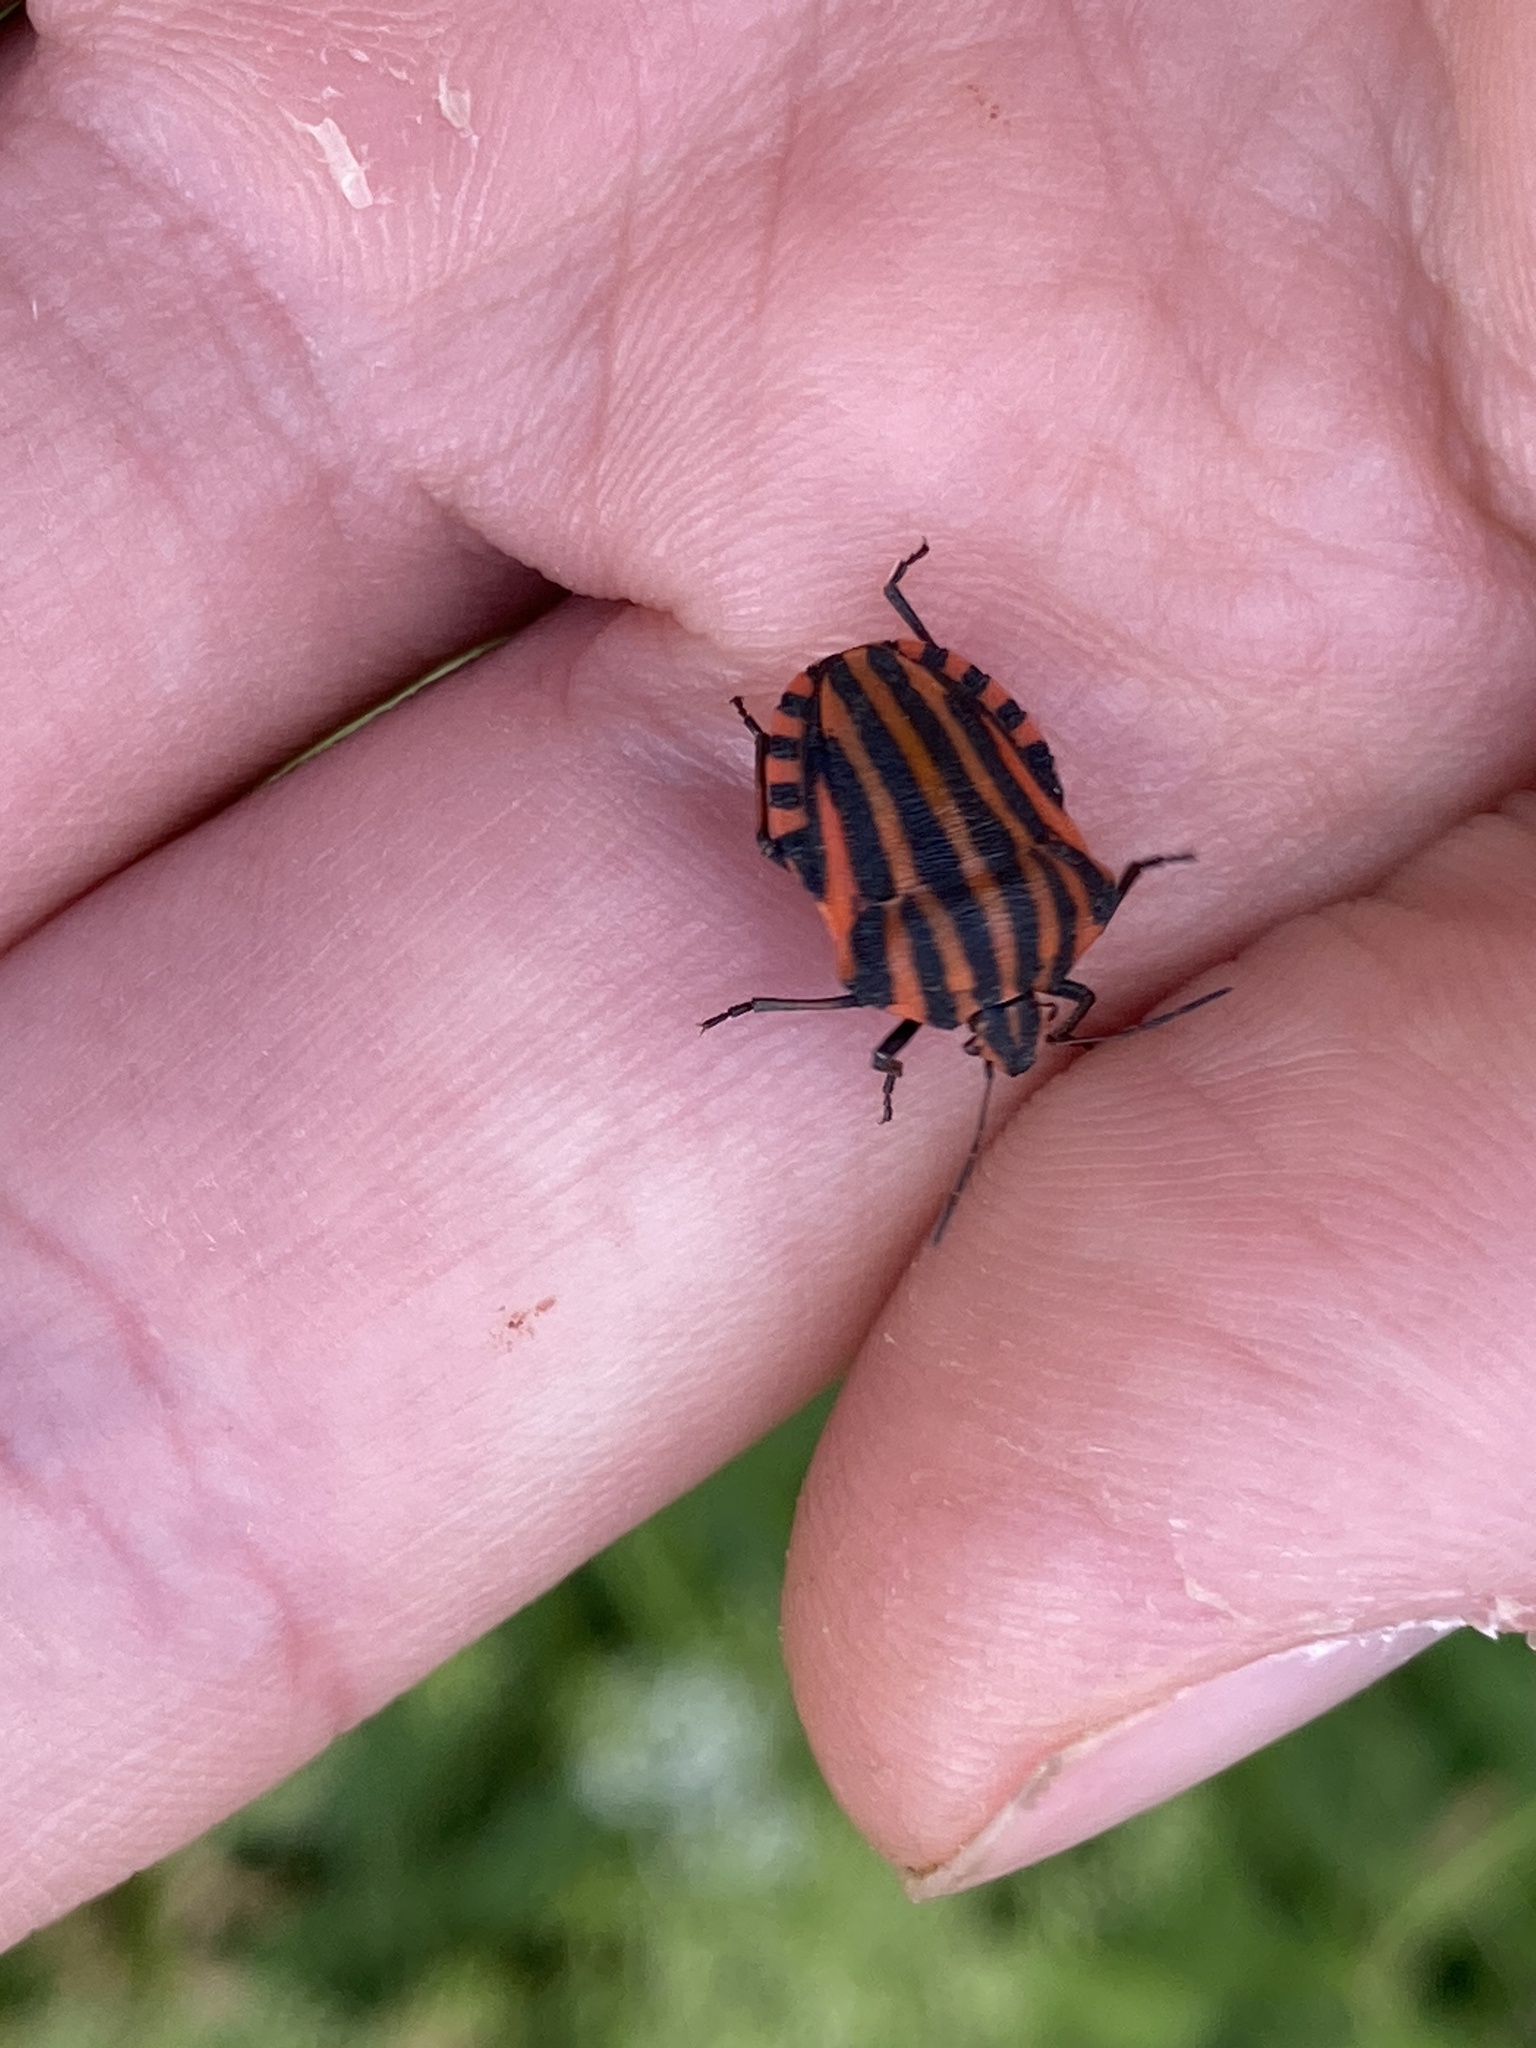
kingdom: Animalia
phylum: Arthropoda
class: Insecta
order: Hemiptera
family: Pentatomidae
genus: Graphosoma
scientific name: Graphosoma italicum
